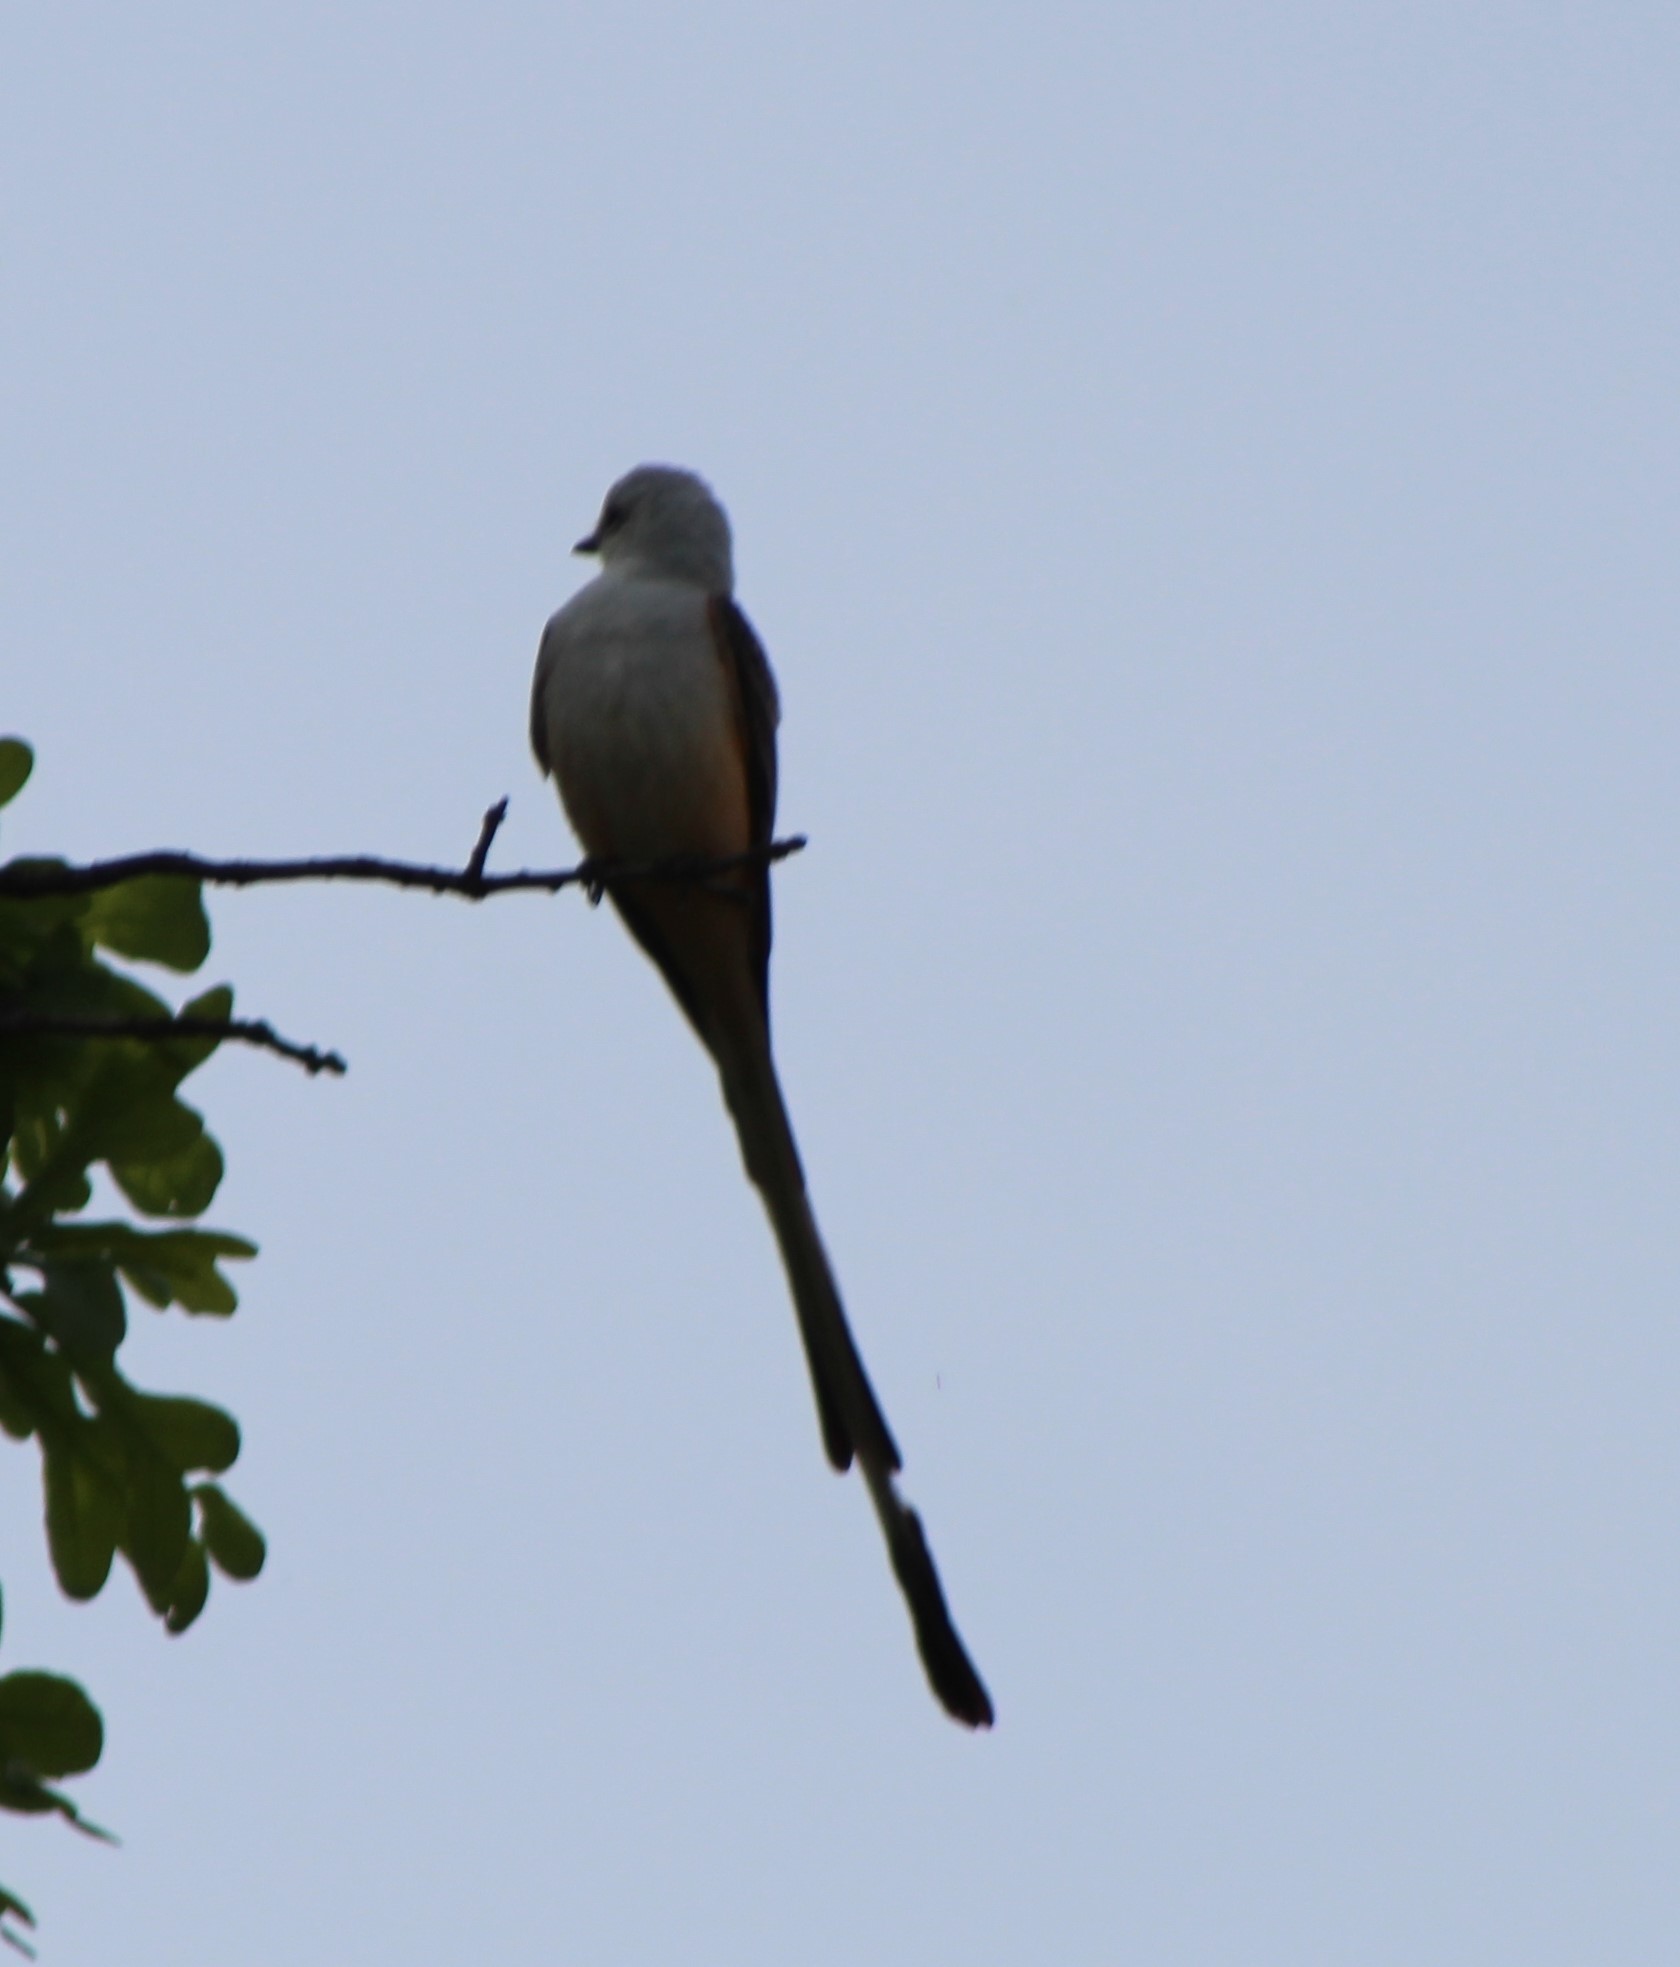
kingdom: Animalia
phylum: Chordata
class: Aves
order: Passeriformes
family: Tyrannidae
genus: Tyrannus
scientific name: Tyrannus forficatus
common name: Scissor-tailed flycatcher
